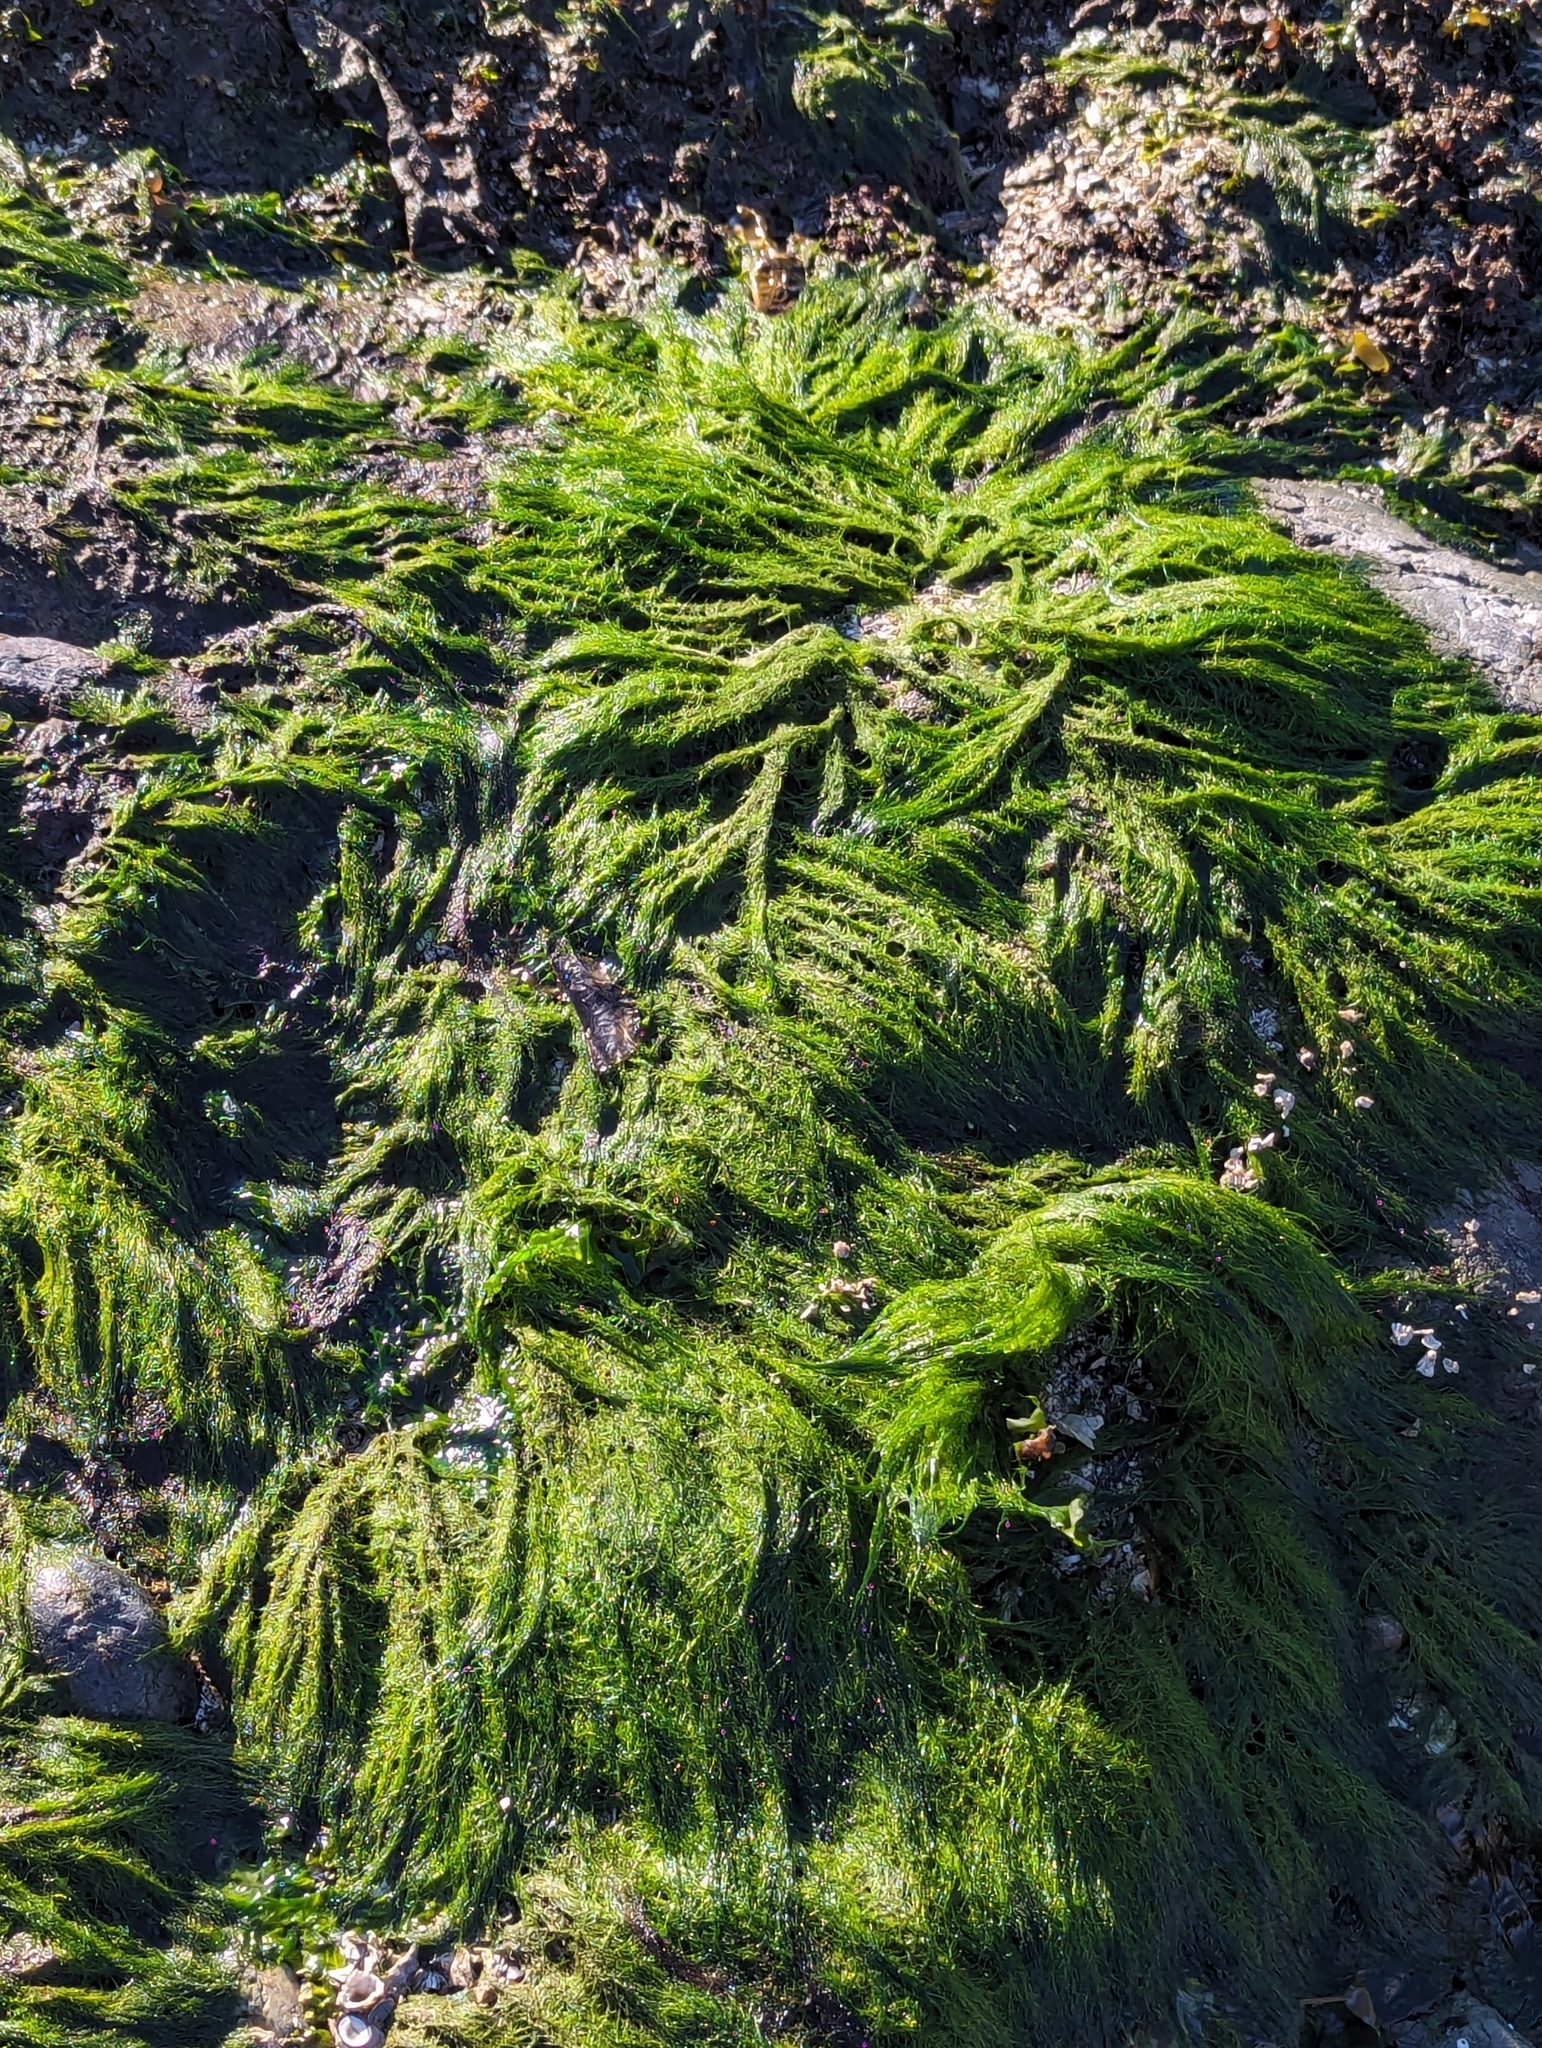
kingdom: Plantae
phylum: Chlorophyta
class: Ulvophyceae
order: Ulotrichales
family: Ulotrichaceae
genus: Acrosiphonia
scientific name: Acrosiphonia
